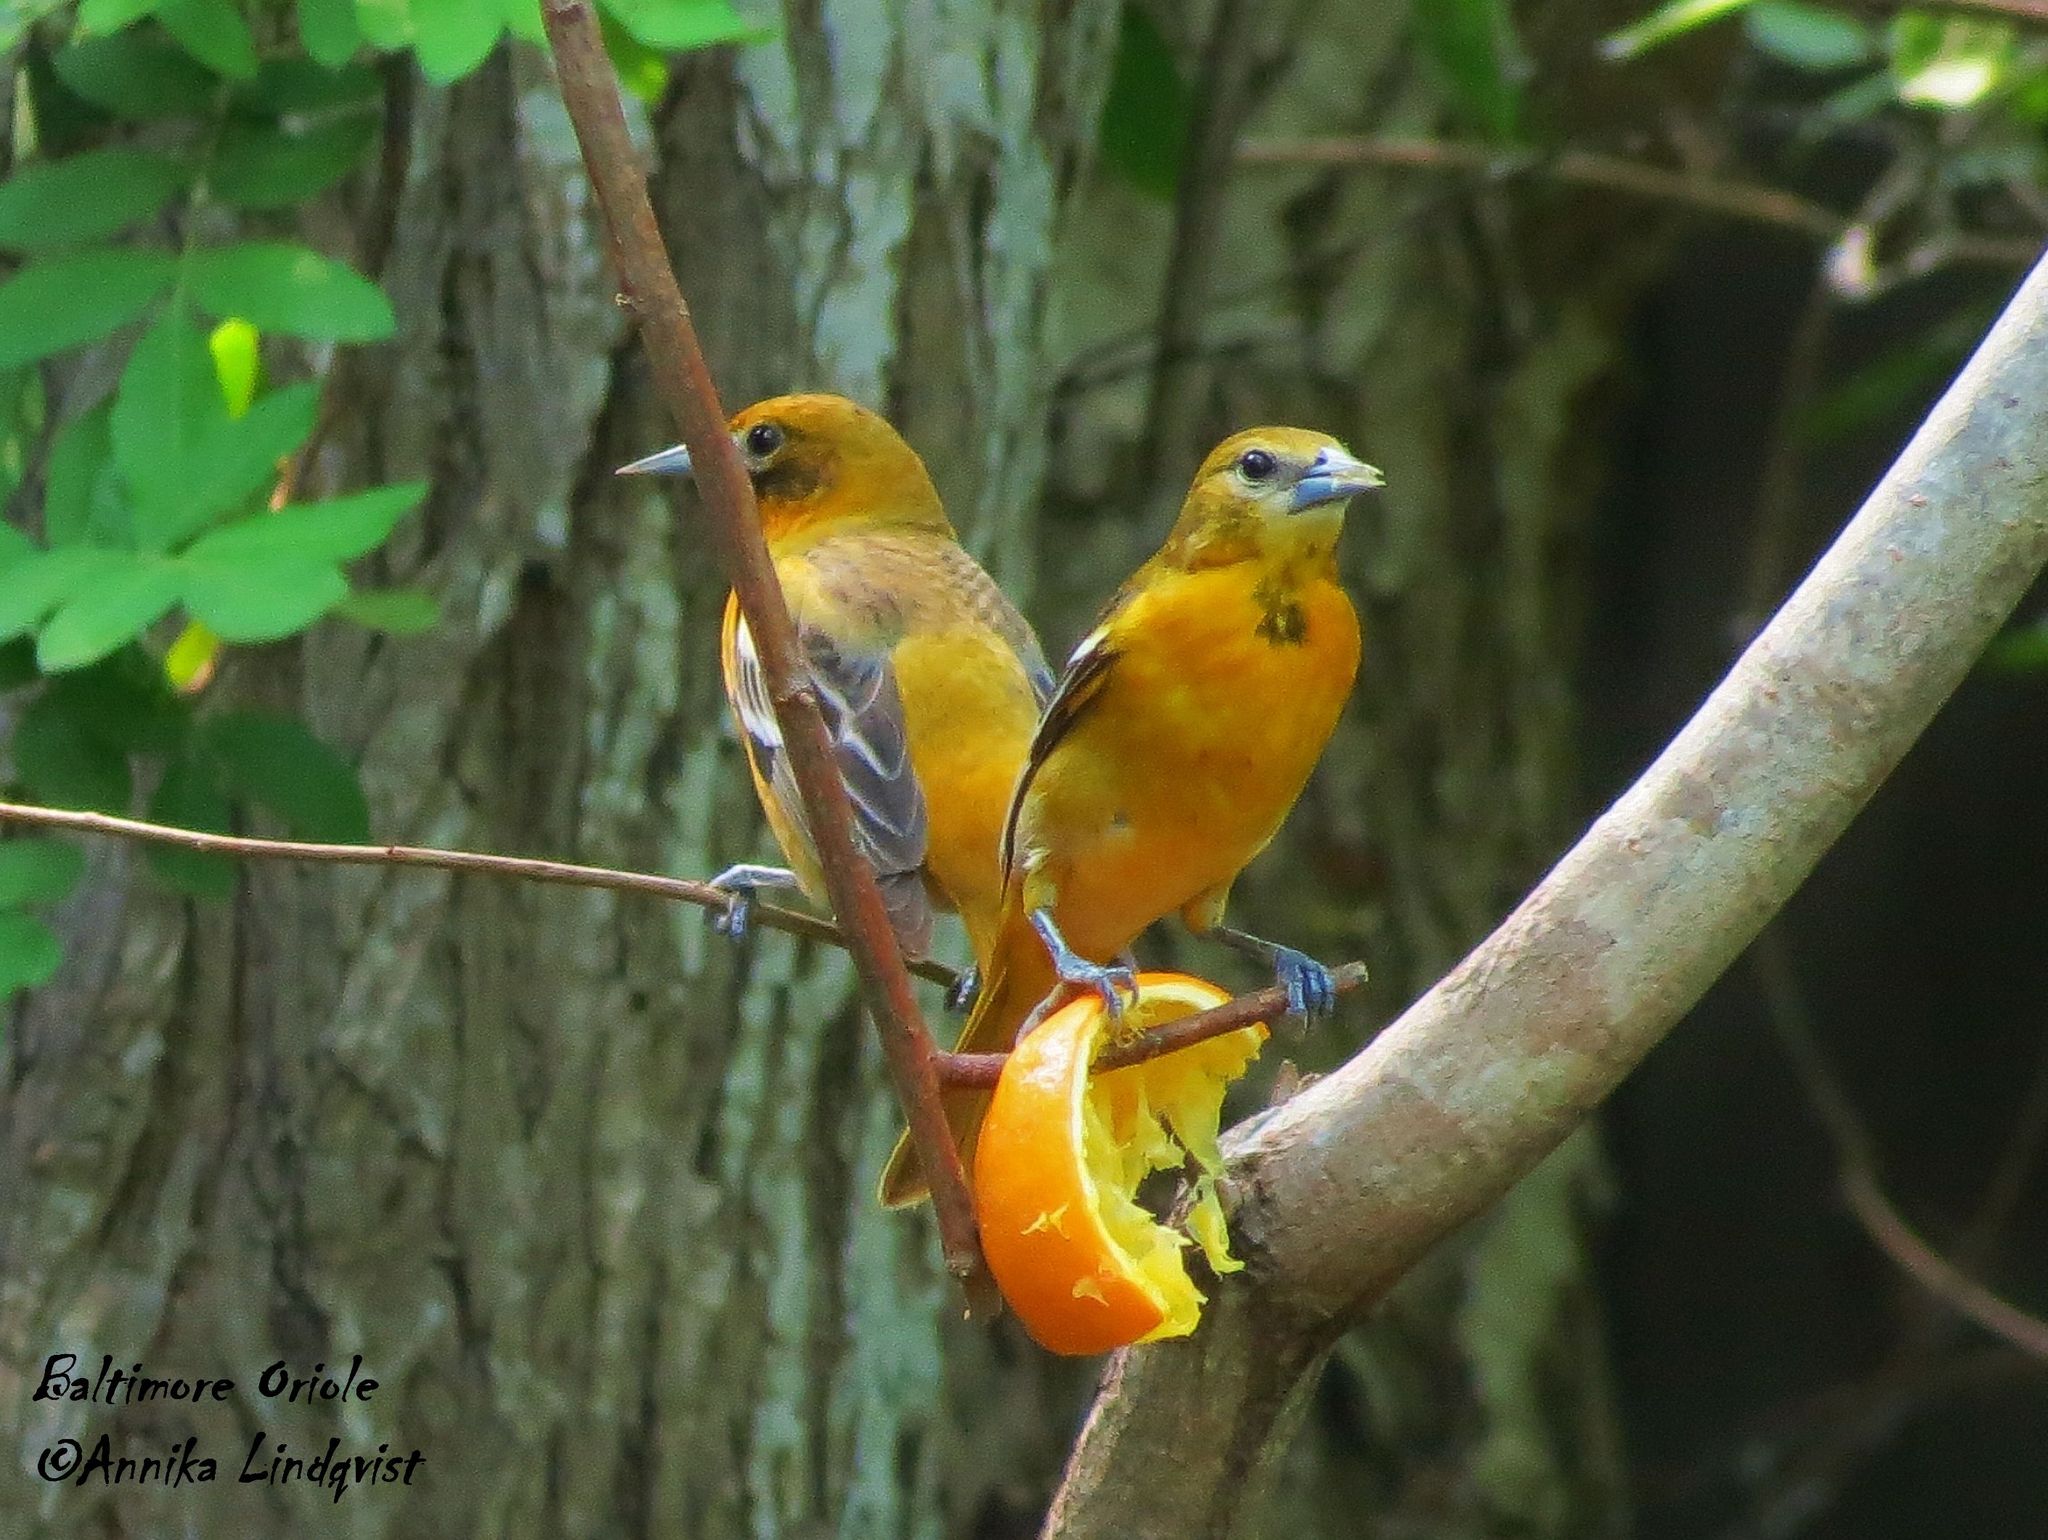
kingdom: Animalia
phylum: Chordata
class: Aves
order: Passeriformes
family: Icteridae
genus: Icterus
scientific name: Icterus galbula
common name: Baltimore oriole
